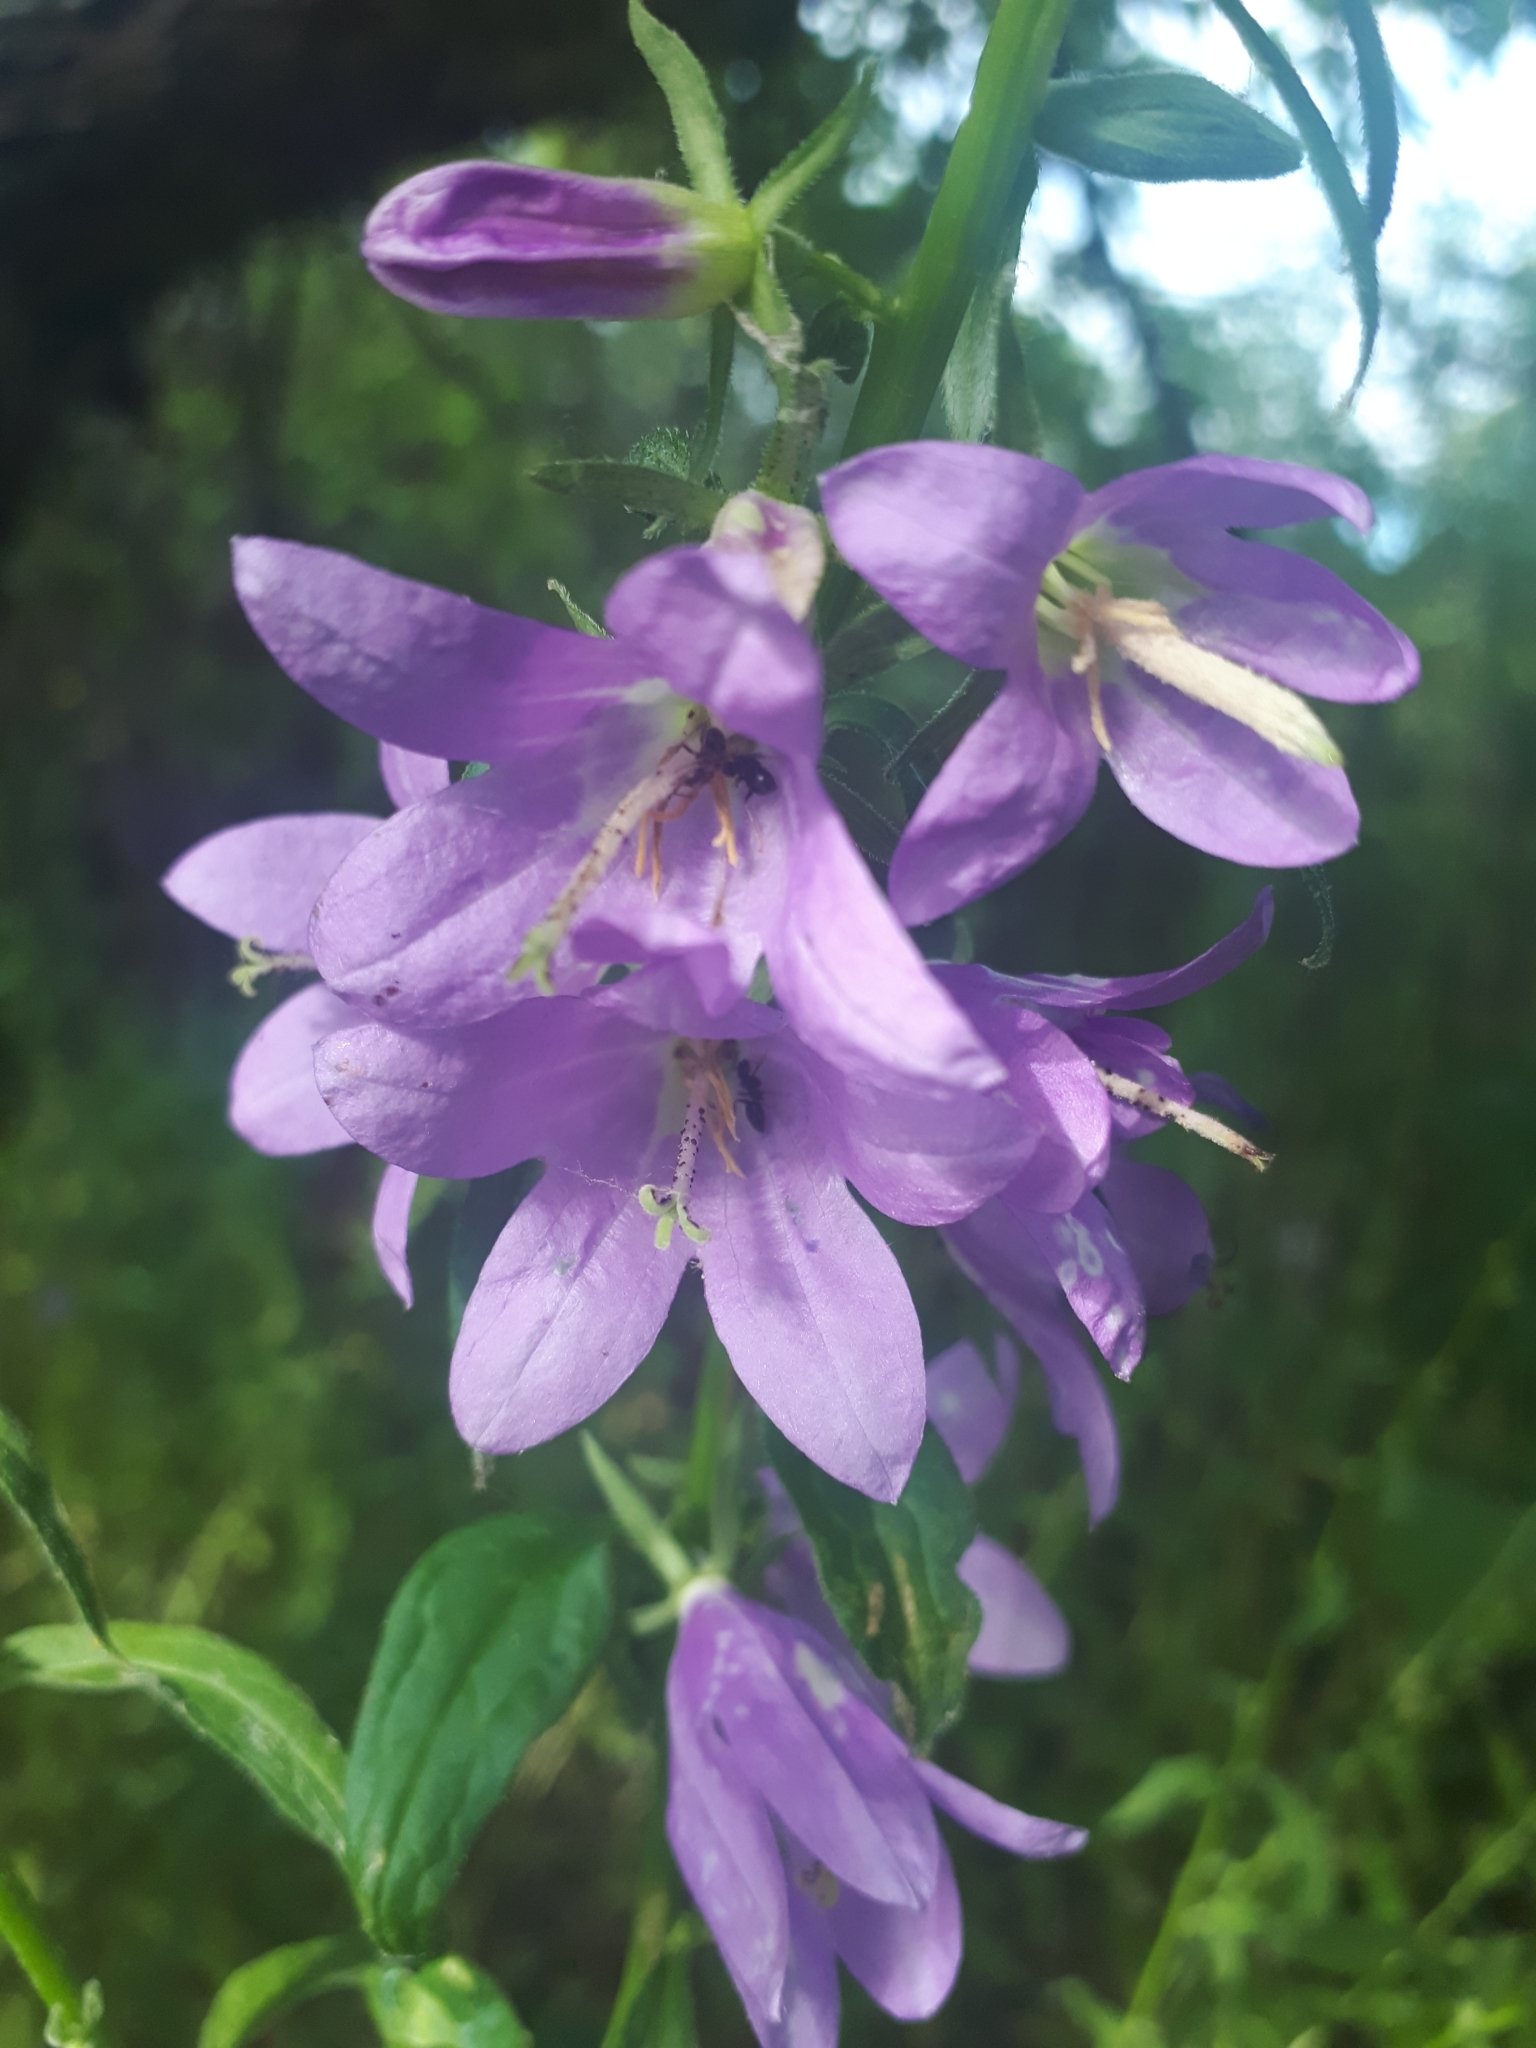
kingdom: Plantae
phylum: Tracheophyta
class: Magnoliopsida
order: Asterales
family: Campanulaceae
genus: Campanula
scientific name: Campanula rapunculoides
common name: Creeping bellflower
